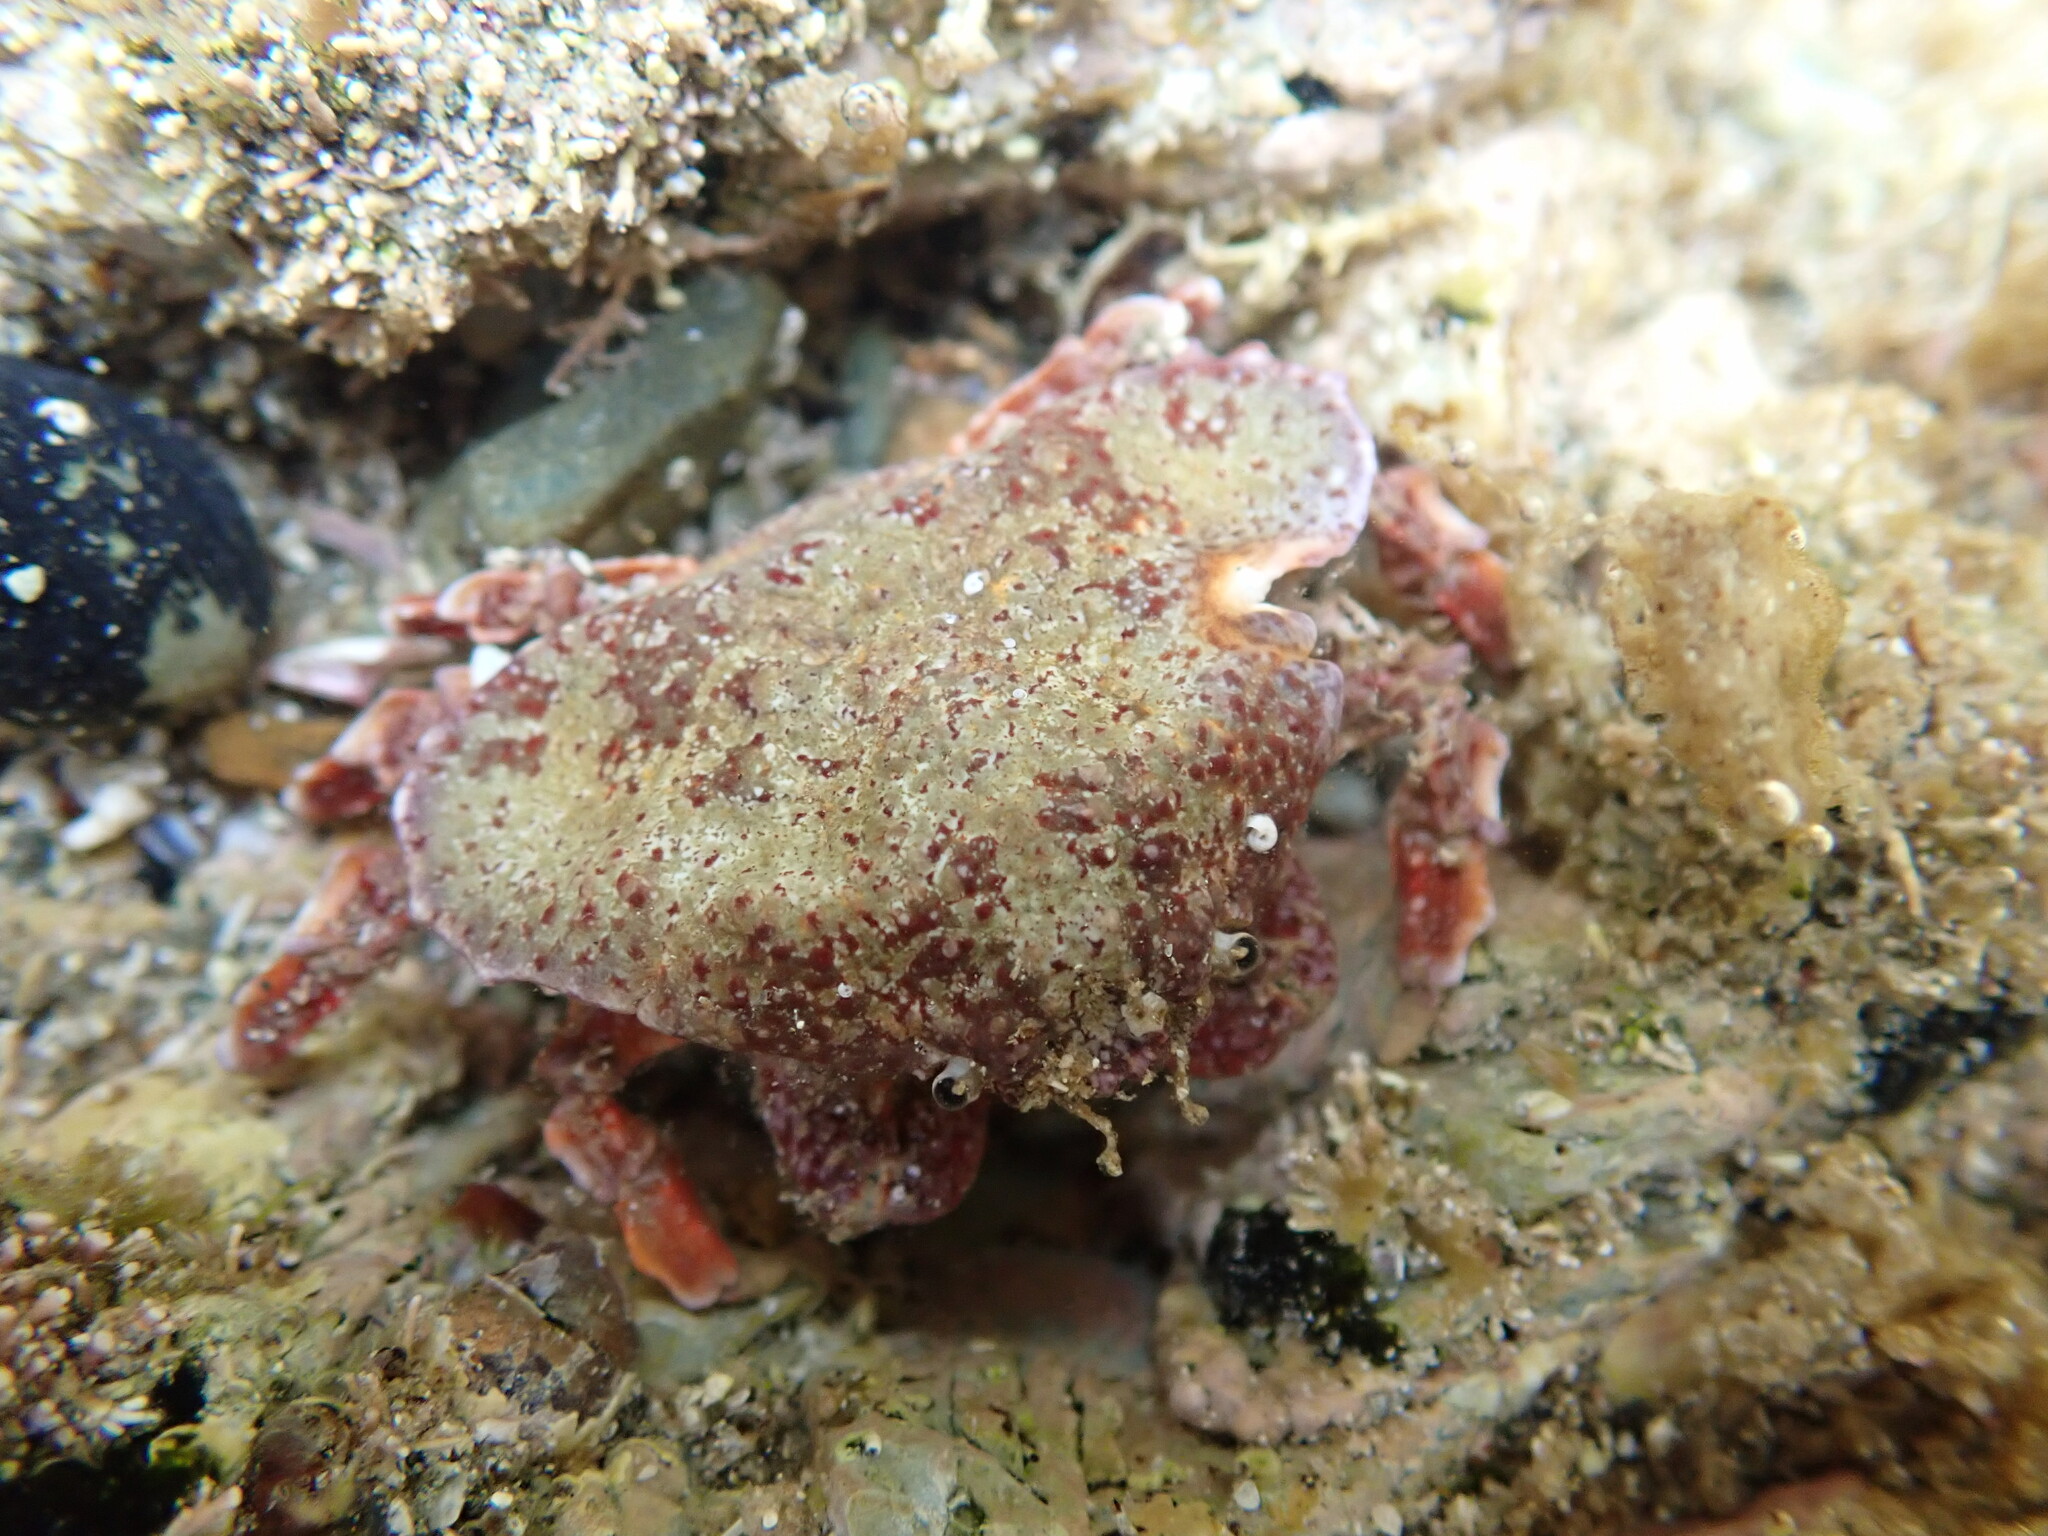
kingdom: Animalia
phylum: Arthropoda
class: Malacostraca
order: Decapoda
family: Majidae
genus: Eurynolambrus
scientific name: Eurynolambrus australis
